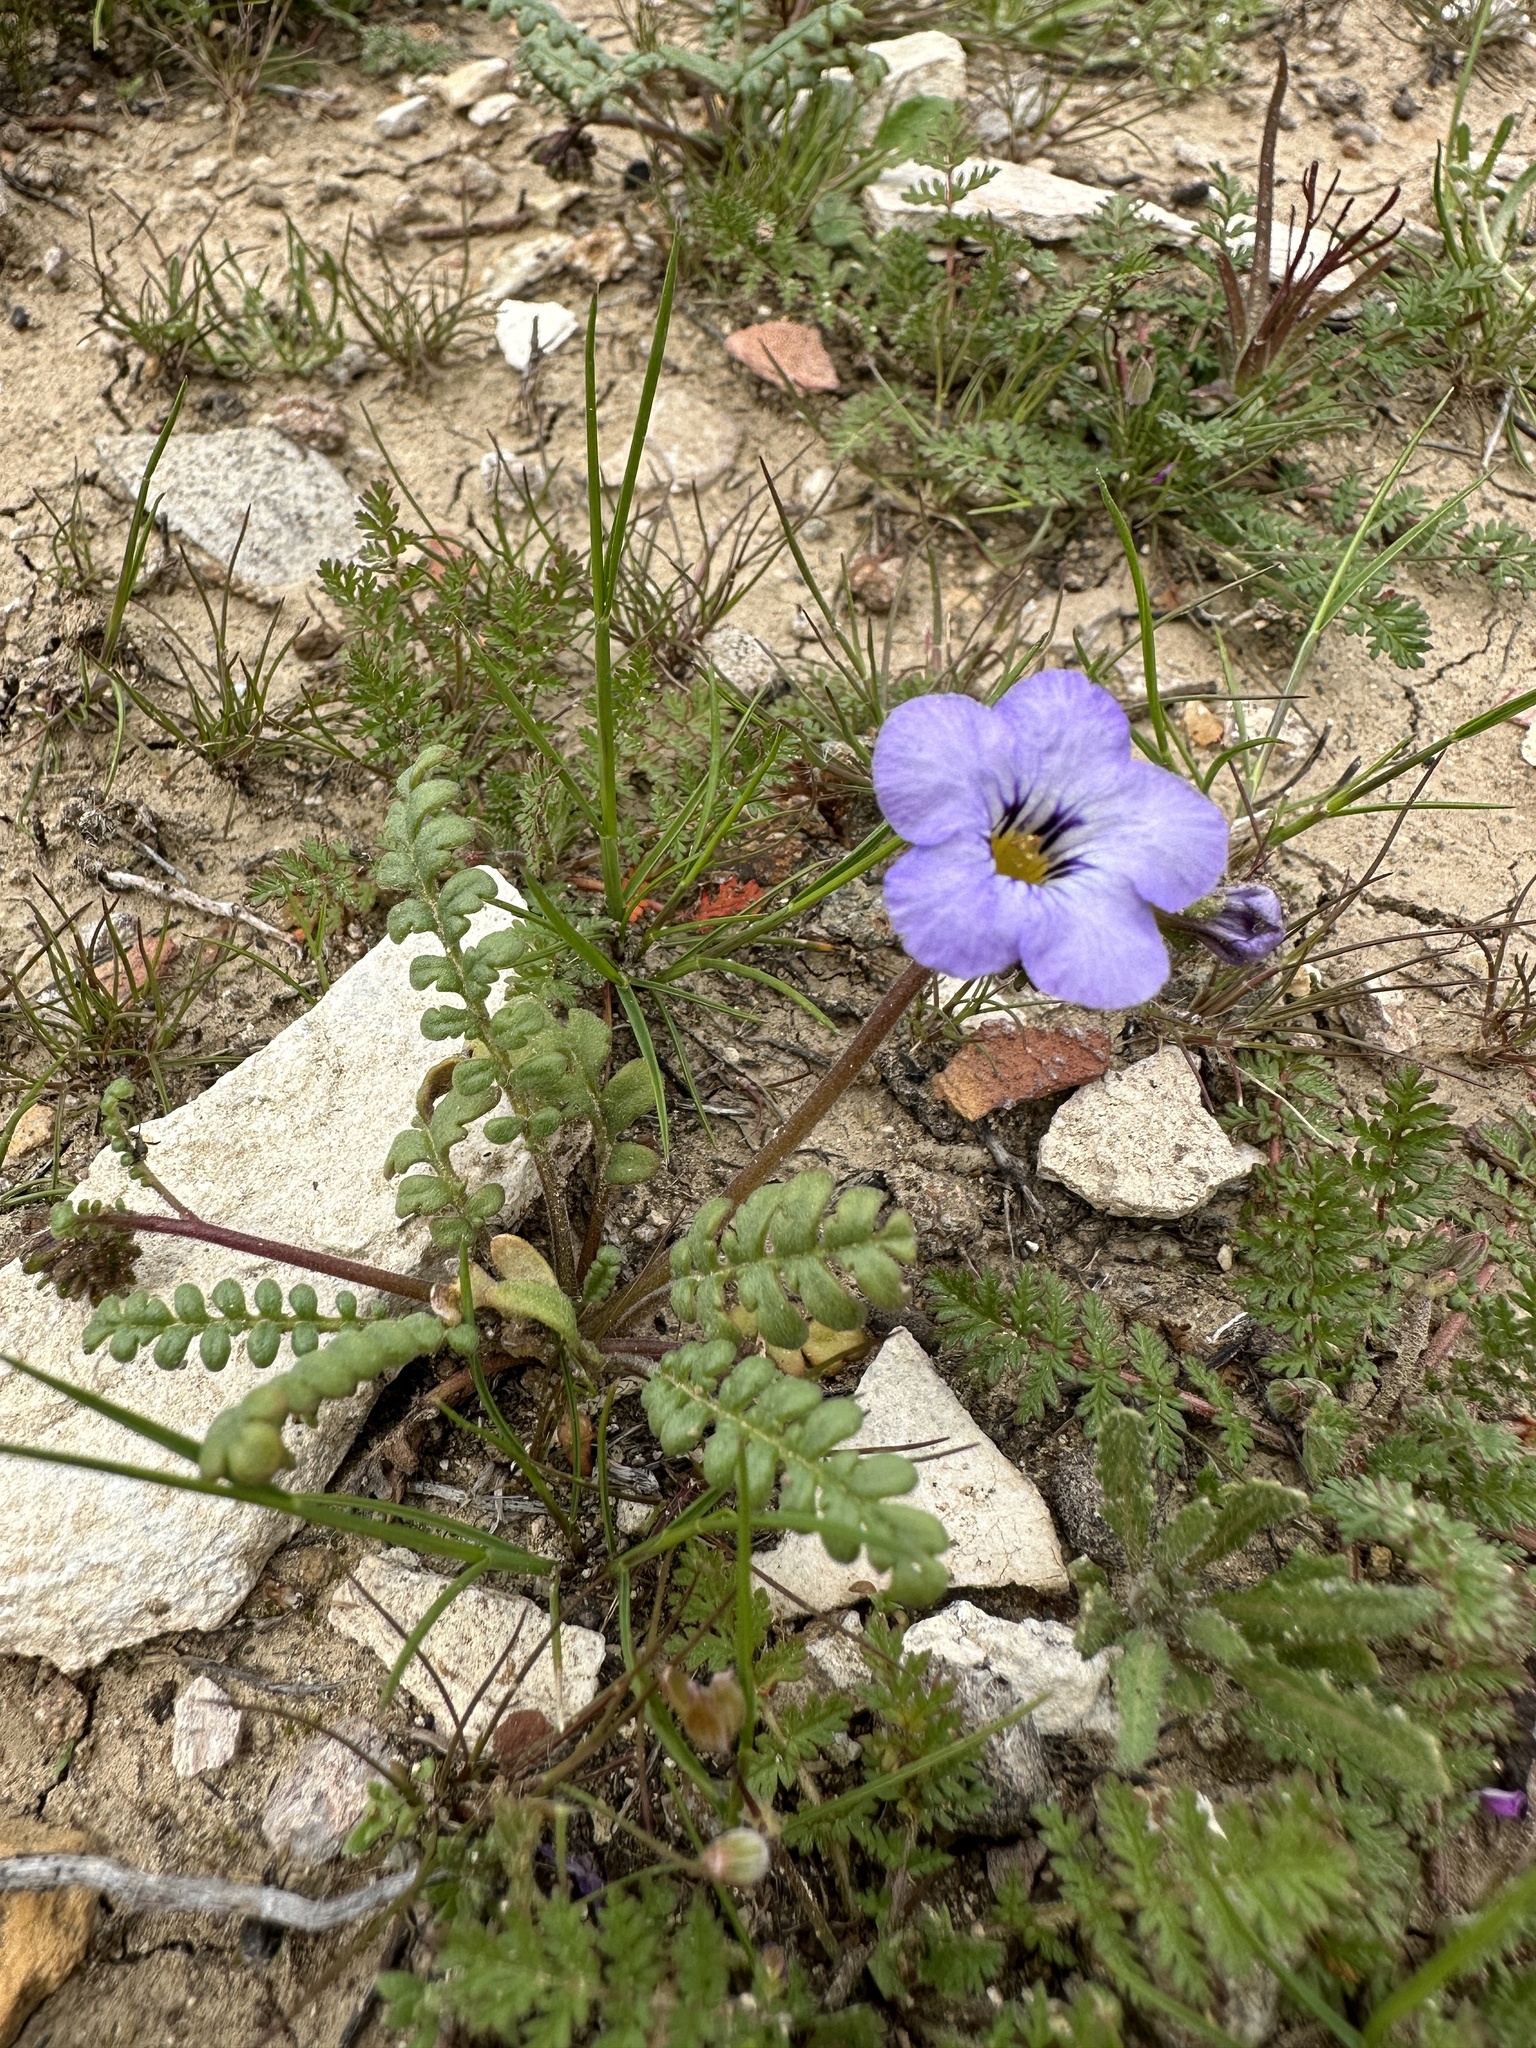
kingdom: Plantae
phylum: Tracheophyta
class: Magnoliopsida
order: Boraginales
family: Hydrophyllaceae
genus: Phacelia
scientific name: Phacelia fremontii
